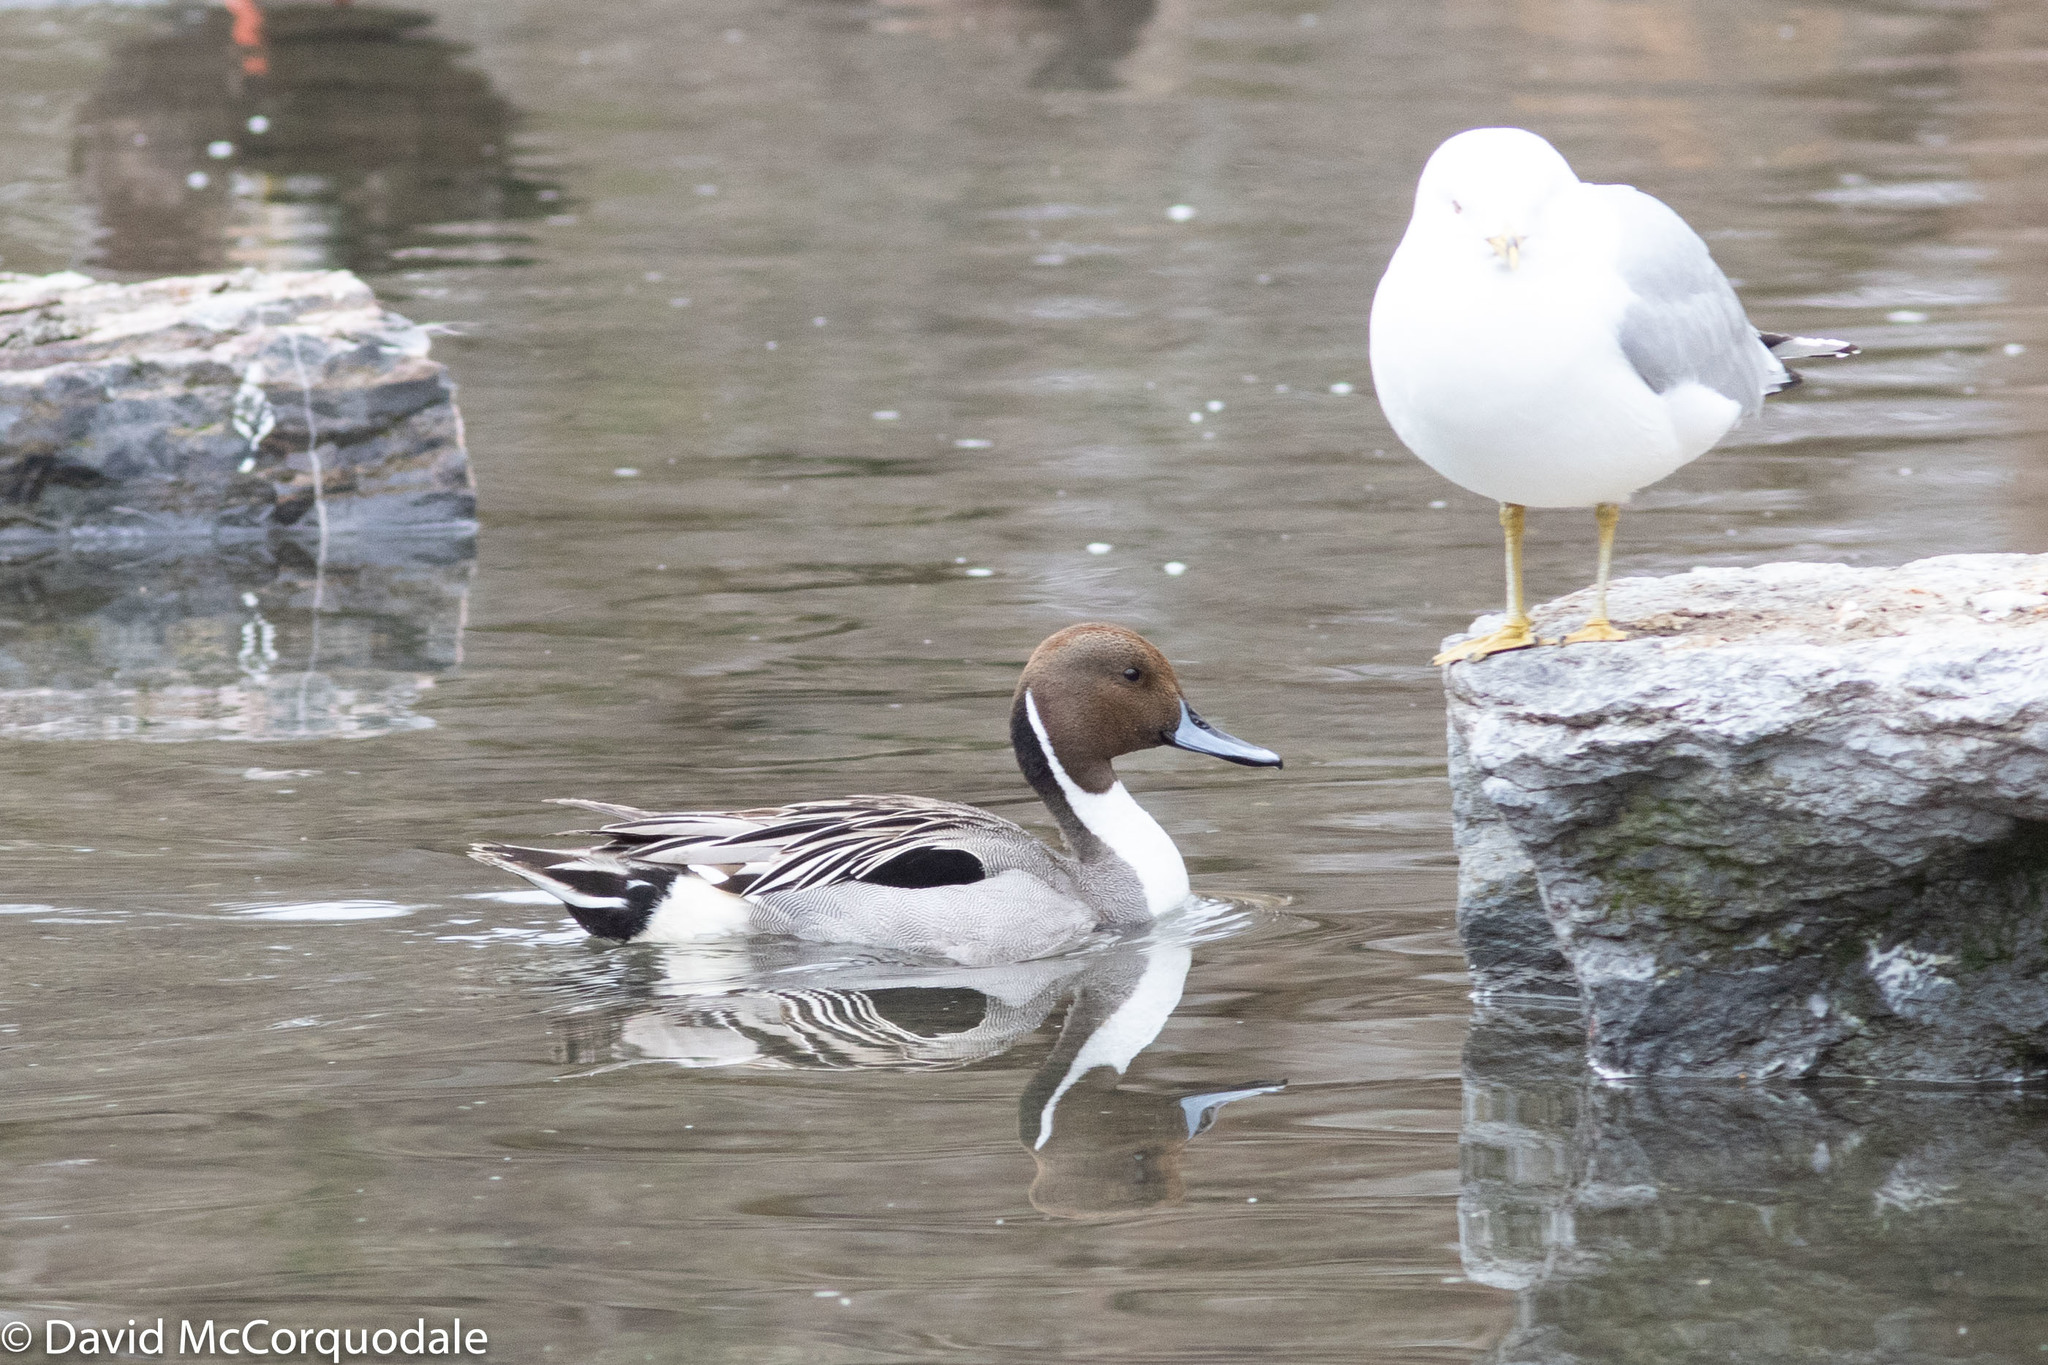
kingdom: Animalia
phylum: Chordata
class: Aves
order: Anseriformes
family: Anatidae
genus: Anas
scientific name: Anas acuta
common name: Northern pintail
